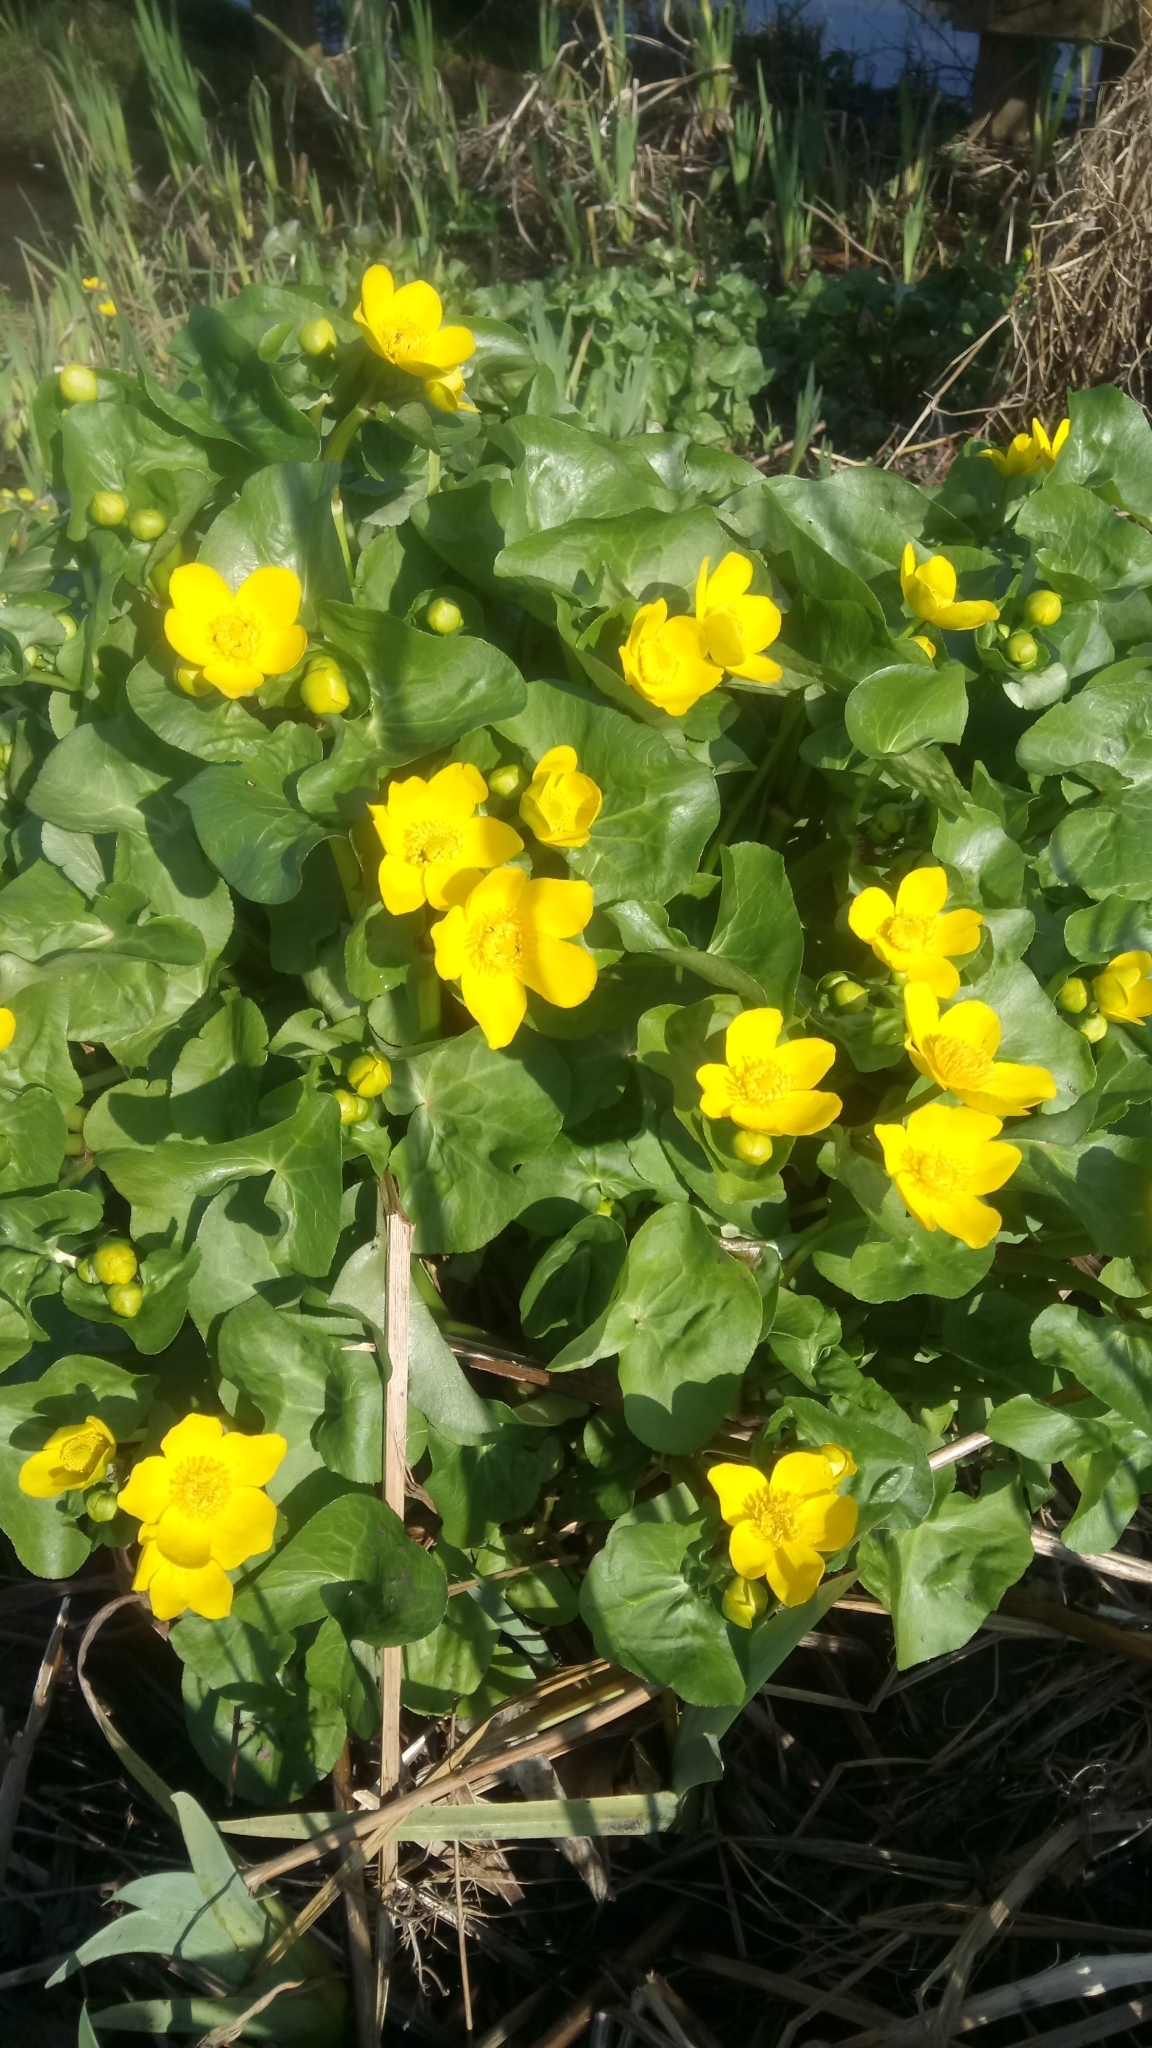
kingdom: Plantae
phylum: Tracheophyta
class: Magnoliopsida
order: Ranunculales
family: Ranunculaceae
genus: Caltha
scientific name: Caltha palustris
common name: Marsh marigold
